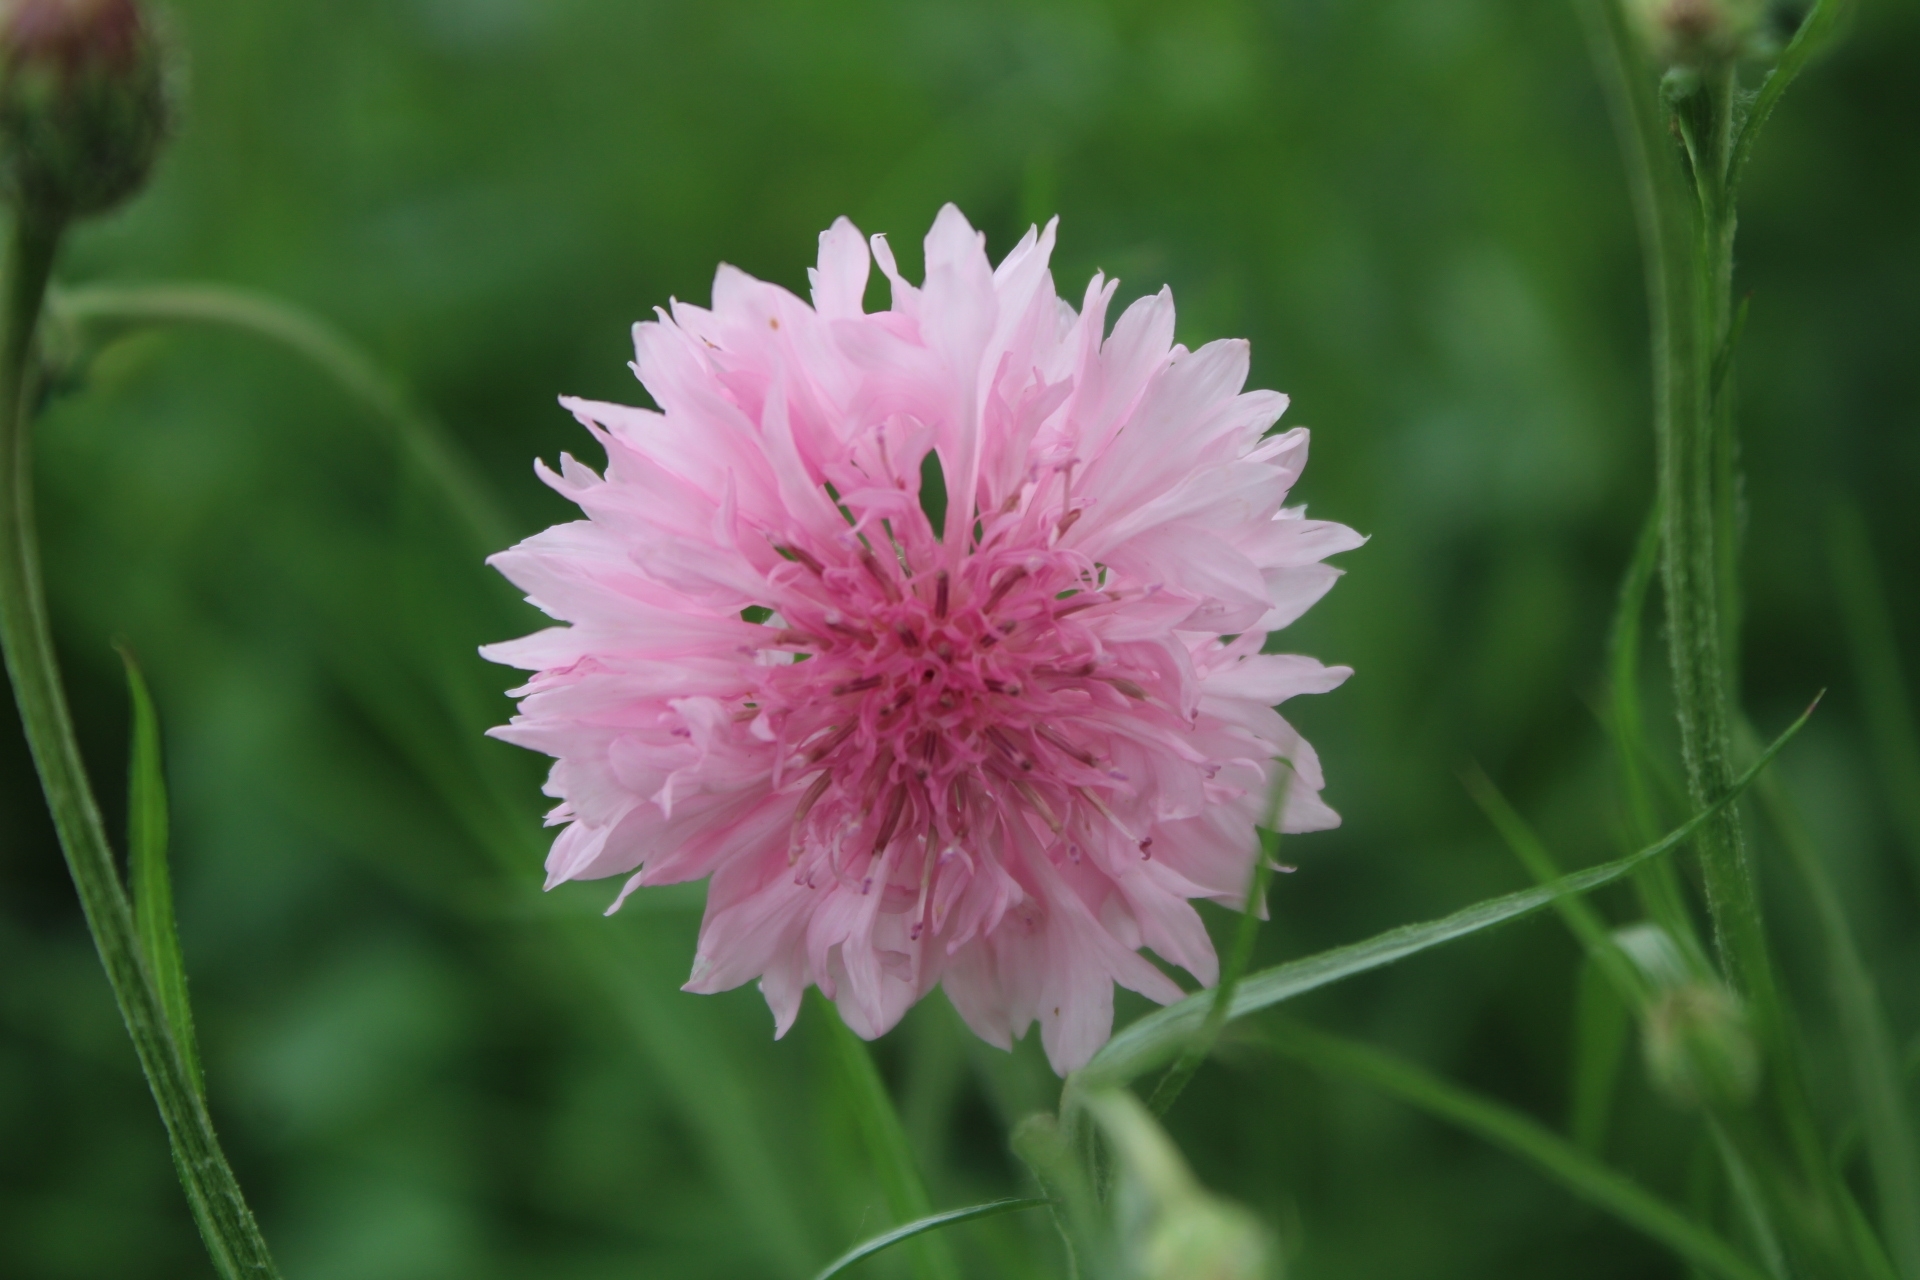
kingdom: Plantae
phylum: Tracheophyta
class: Magnoliopsida
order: Asterales
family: Asteraceae
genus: Centaurea
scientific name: Centaurea cyanus
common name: Cornflower
